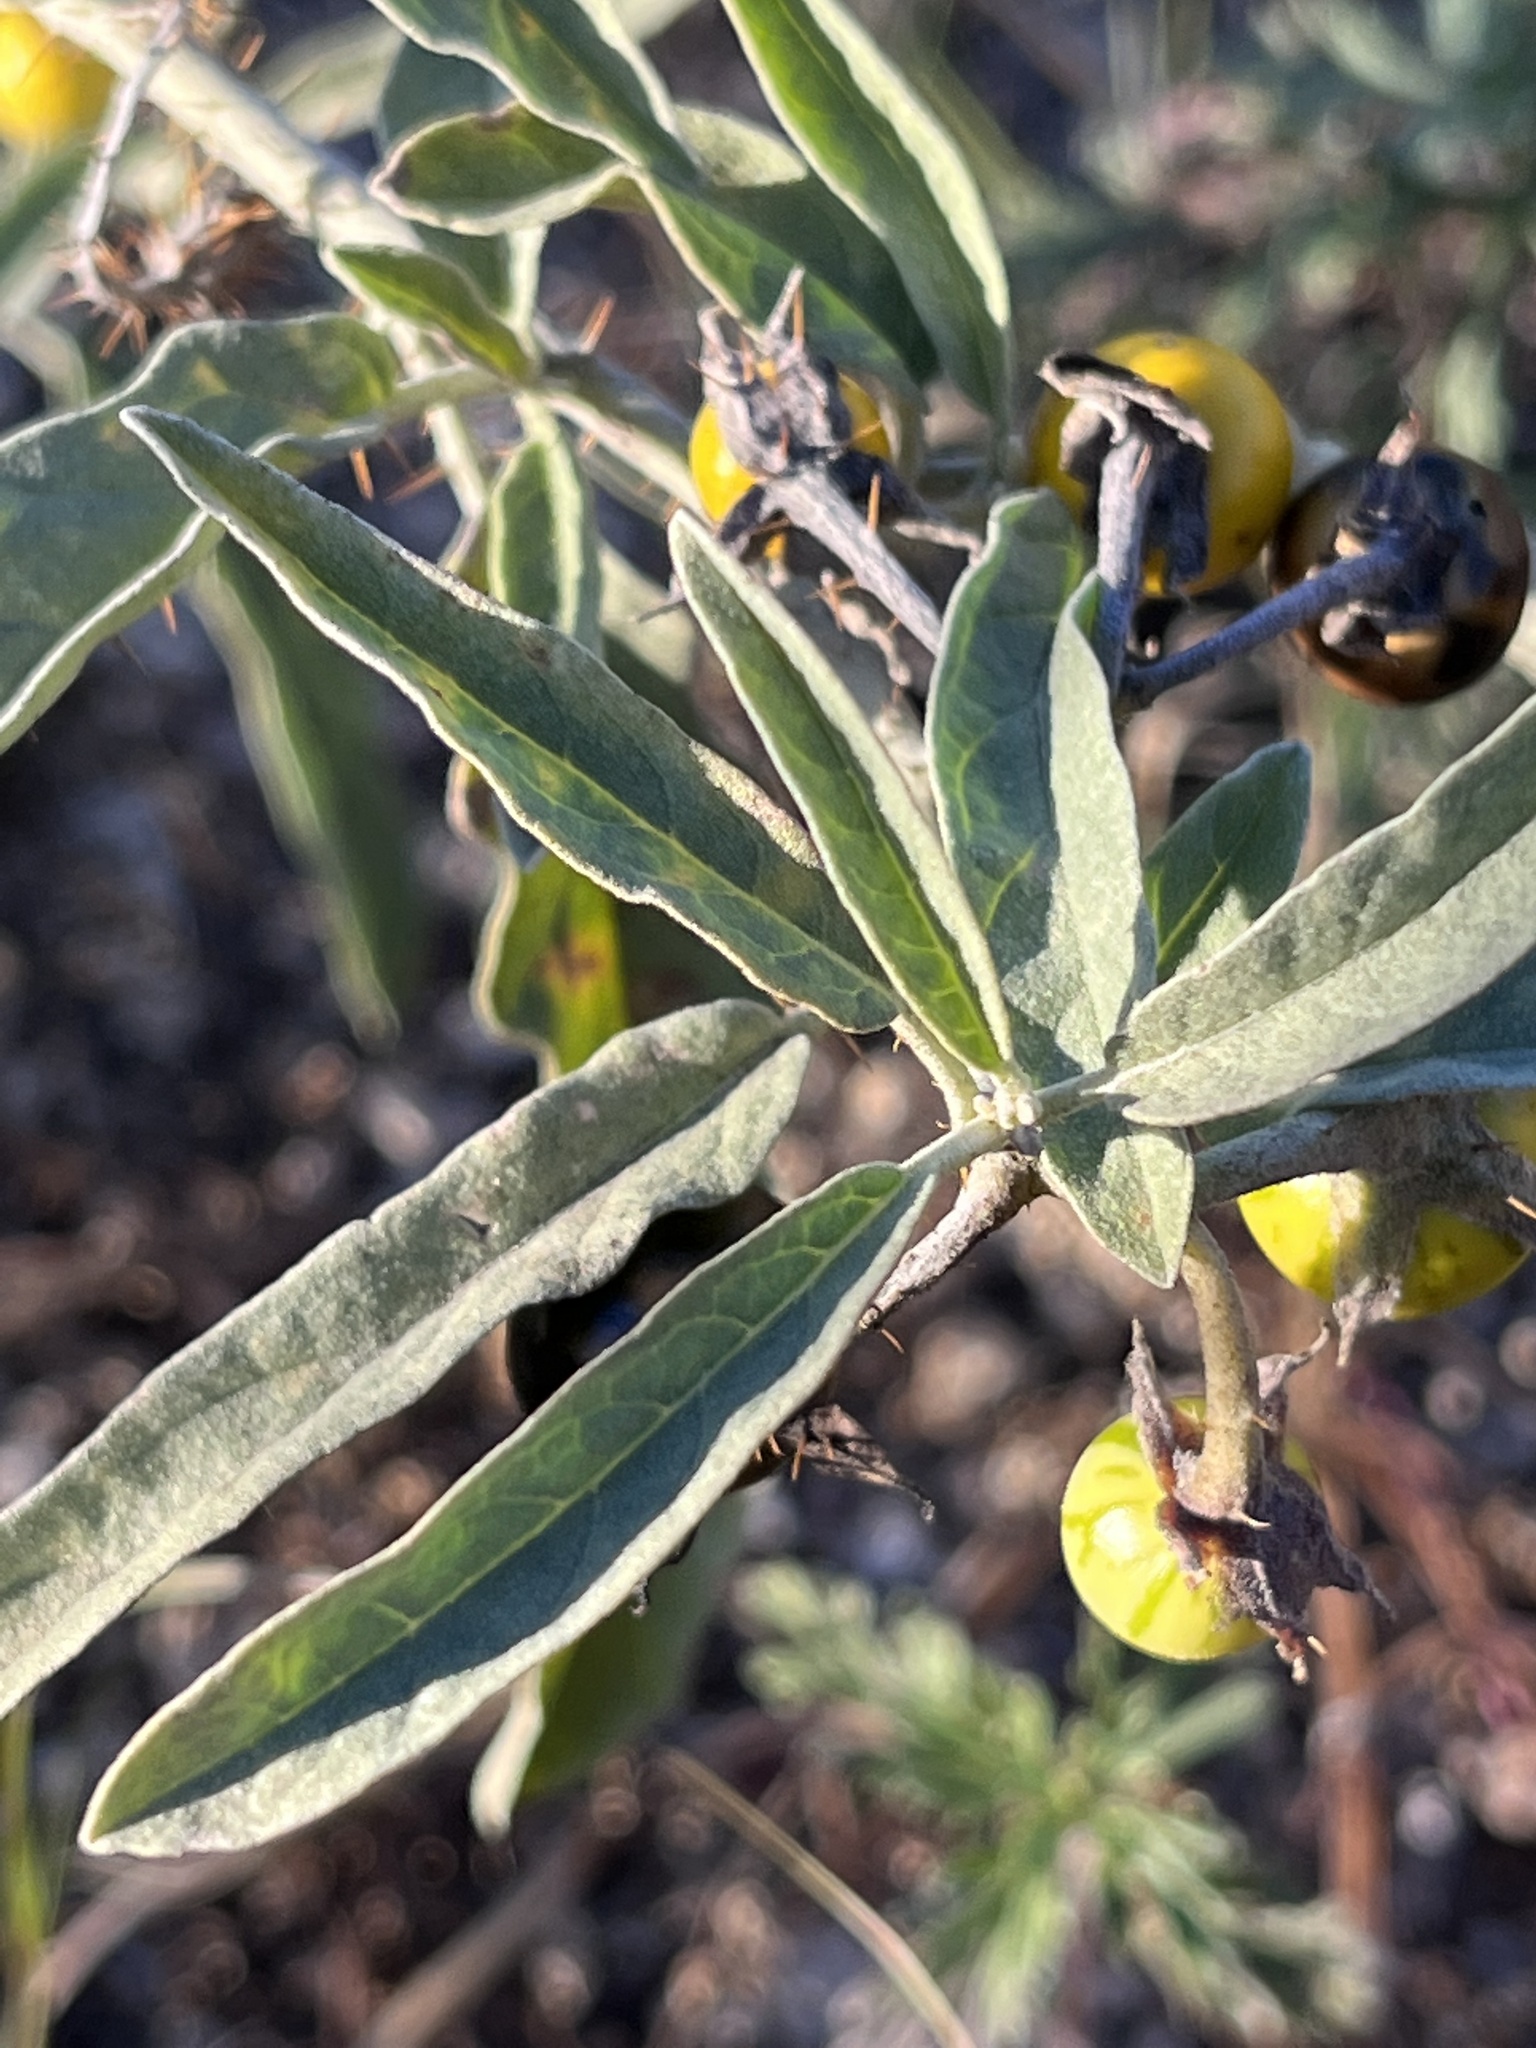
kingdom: Plantae
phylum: Tracheophyta
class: Magnoliopsida
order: Solanales
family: Solanaceae
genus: Solanum
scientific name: Solanum elaeagnifolium
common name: Silverleaf nightshade
